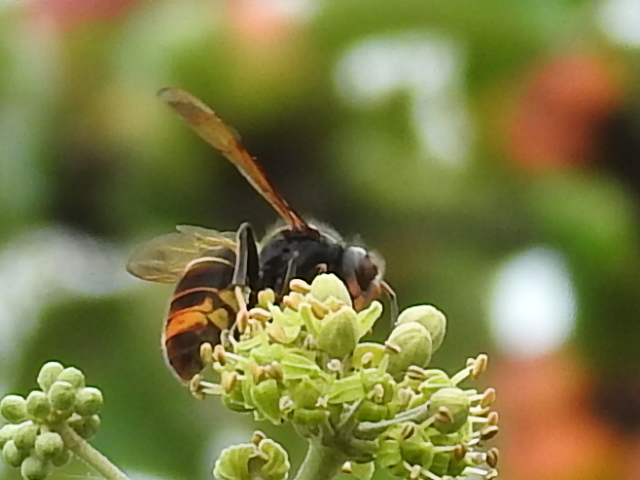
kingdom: Animalia
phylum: Arthropoda
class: Insecta
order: Hymenoptera
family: Vespidae
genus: Vespa
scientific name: Vespa velutina
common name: Asian hornet
